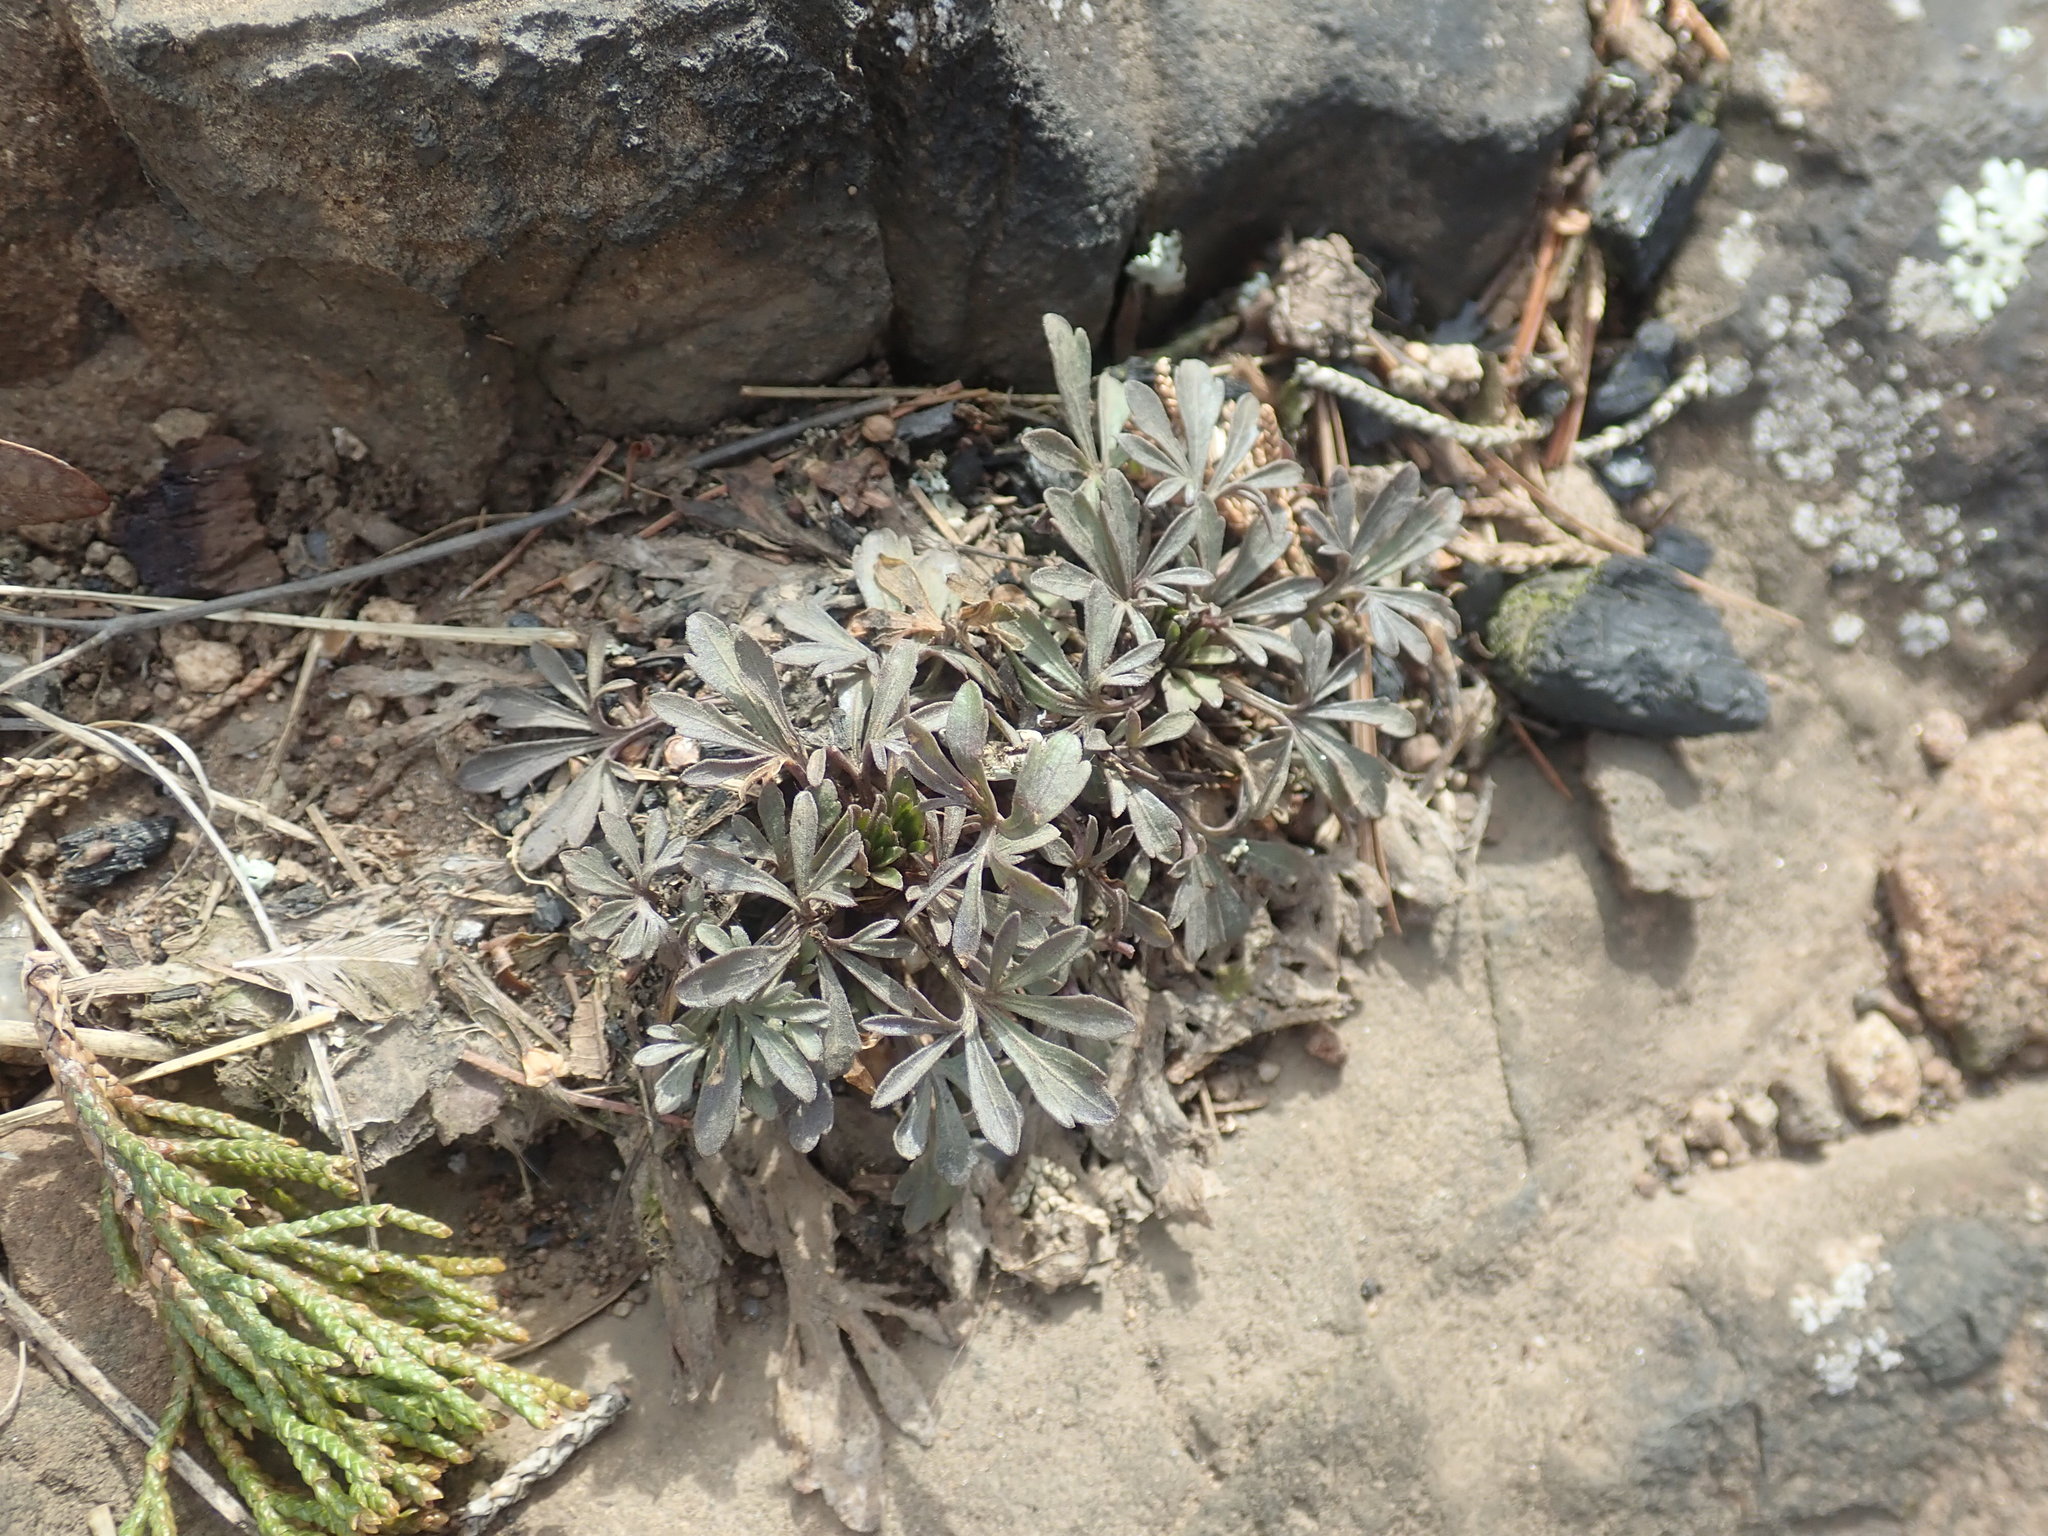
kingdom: Plantae
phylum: Tracheophyta
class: Magnoliopsida
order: Malpighiales
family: Violaceae
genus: Viola
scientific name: Viola pedata
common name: Pansy violet
